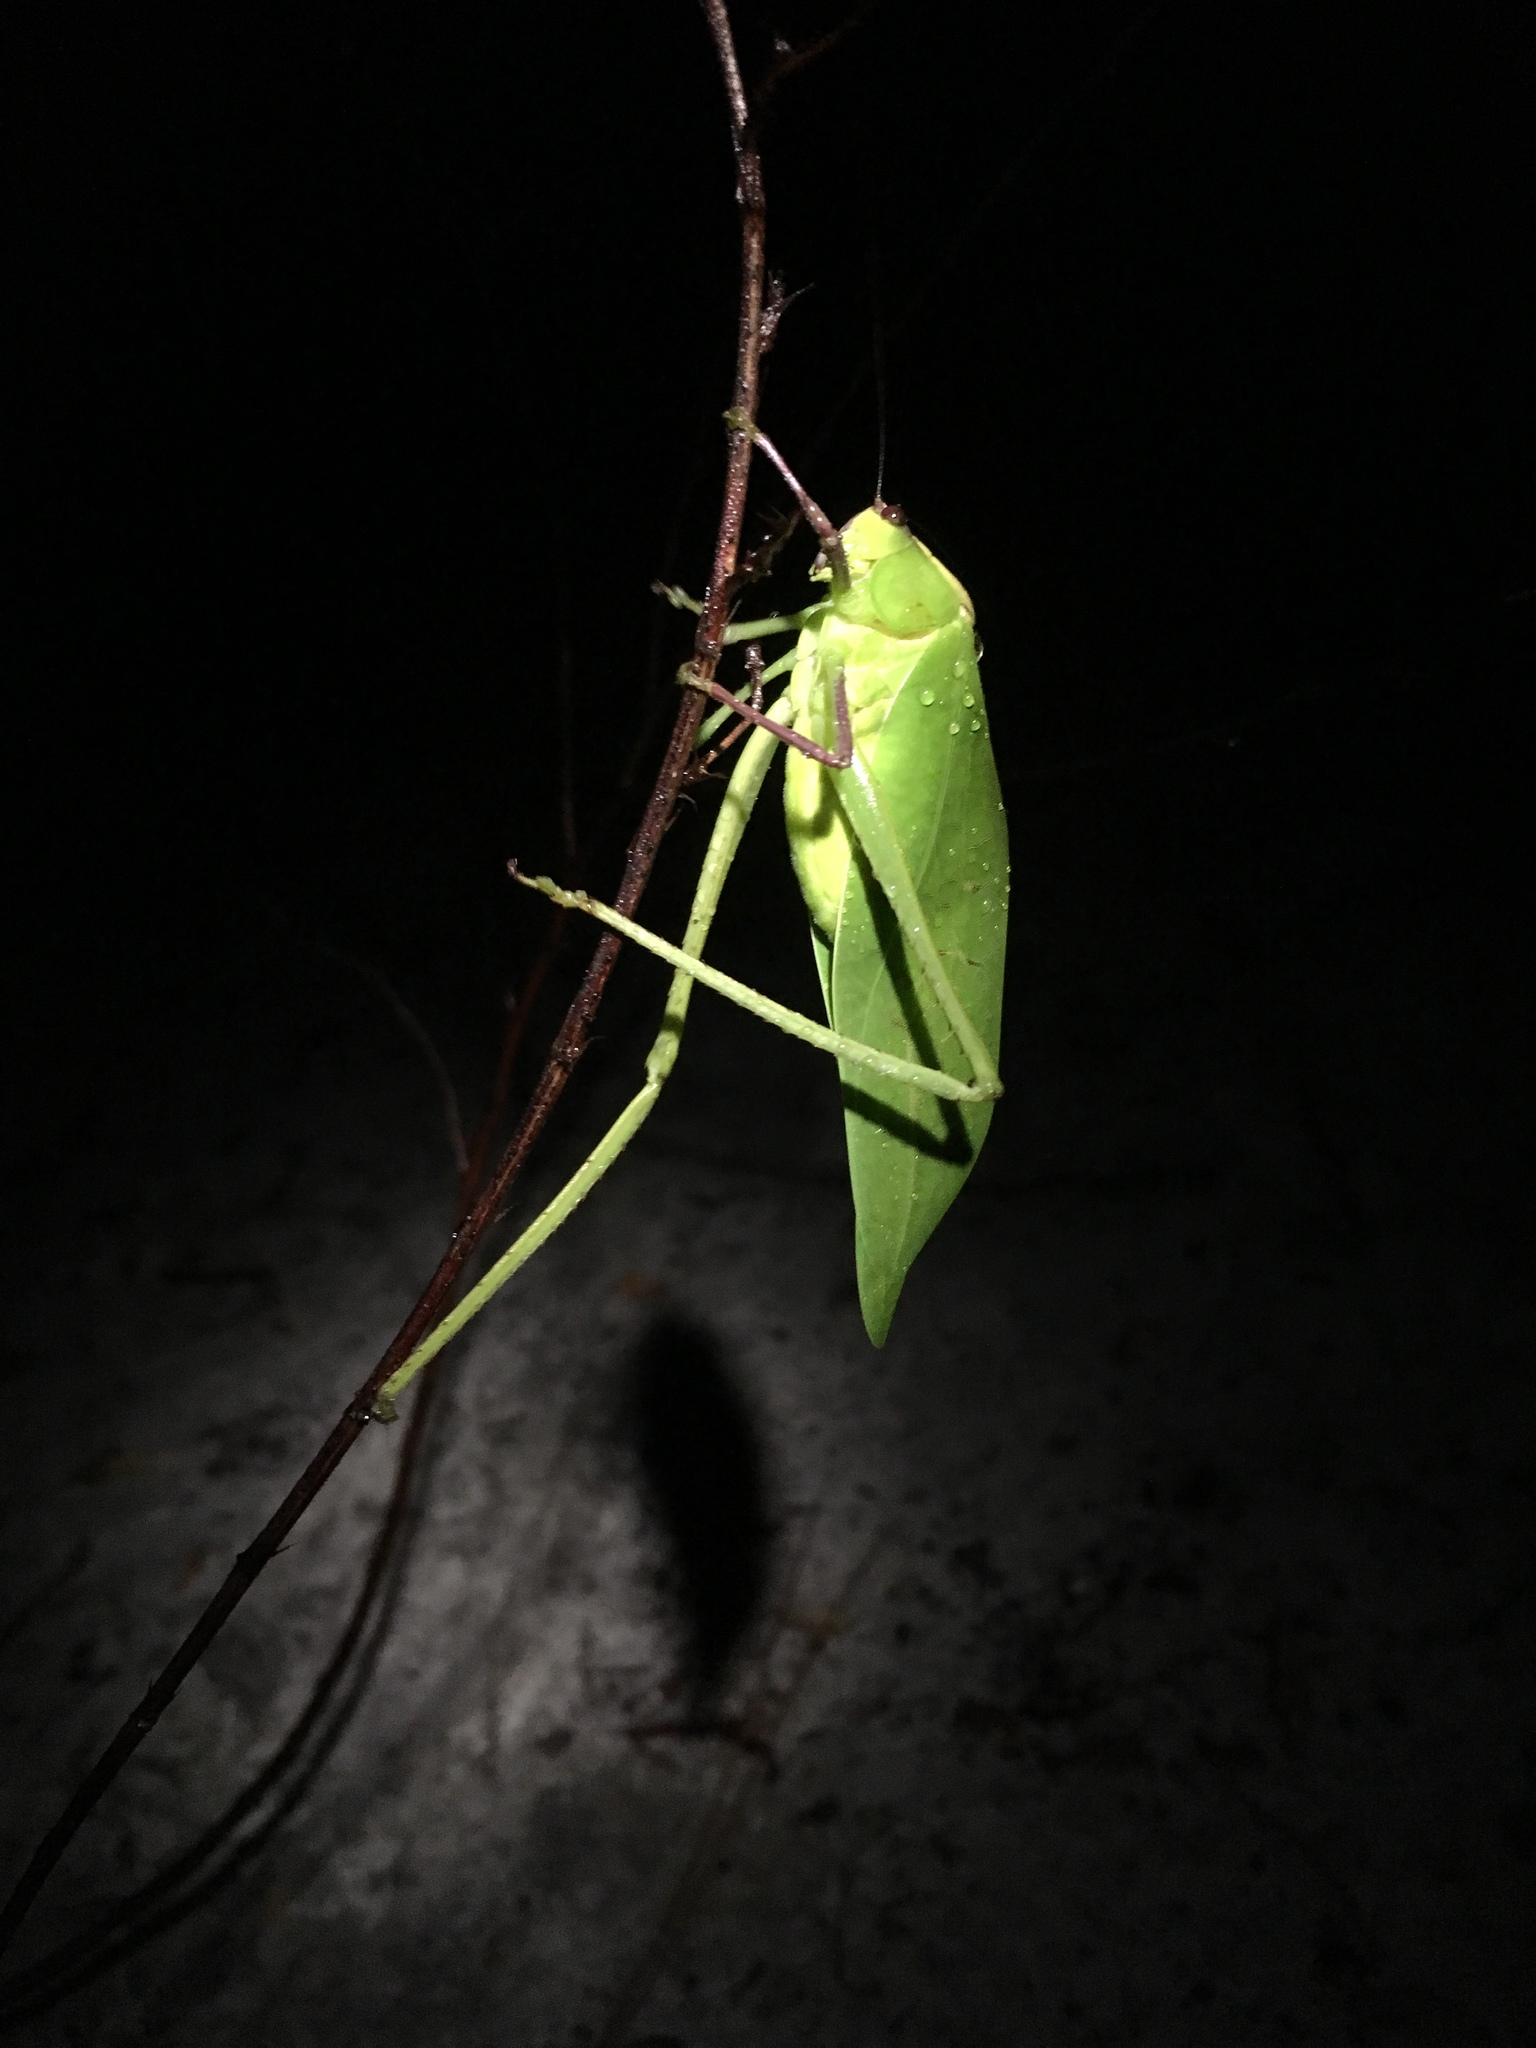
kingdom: Animalia
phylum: Arthropoda
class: Insecta
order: Orthoptera
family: Tettigoniidae
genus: Stilpnochlora
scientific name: Stilpnochlora couloniana
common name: Giant katydid
